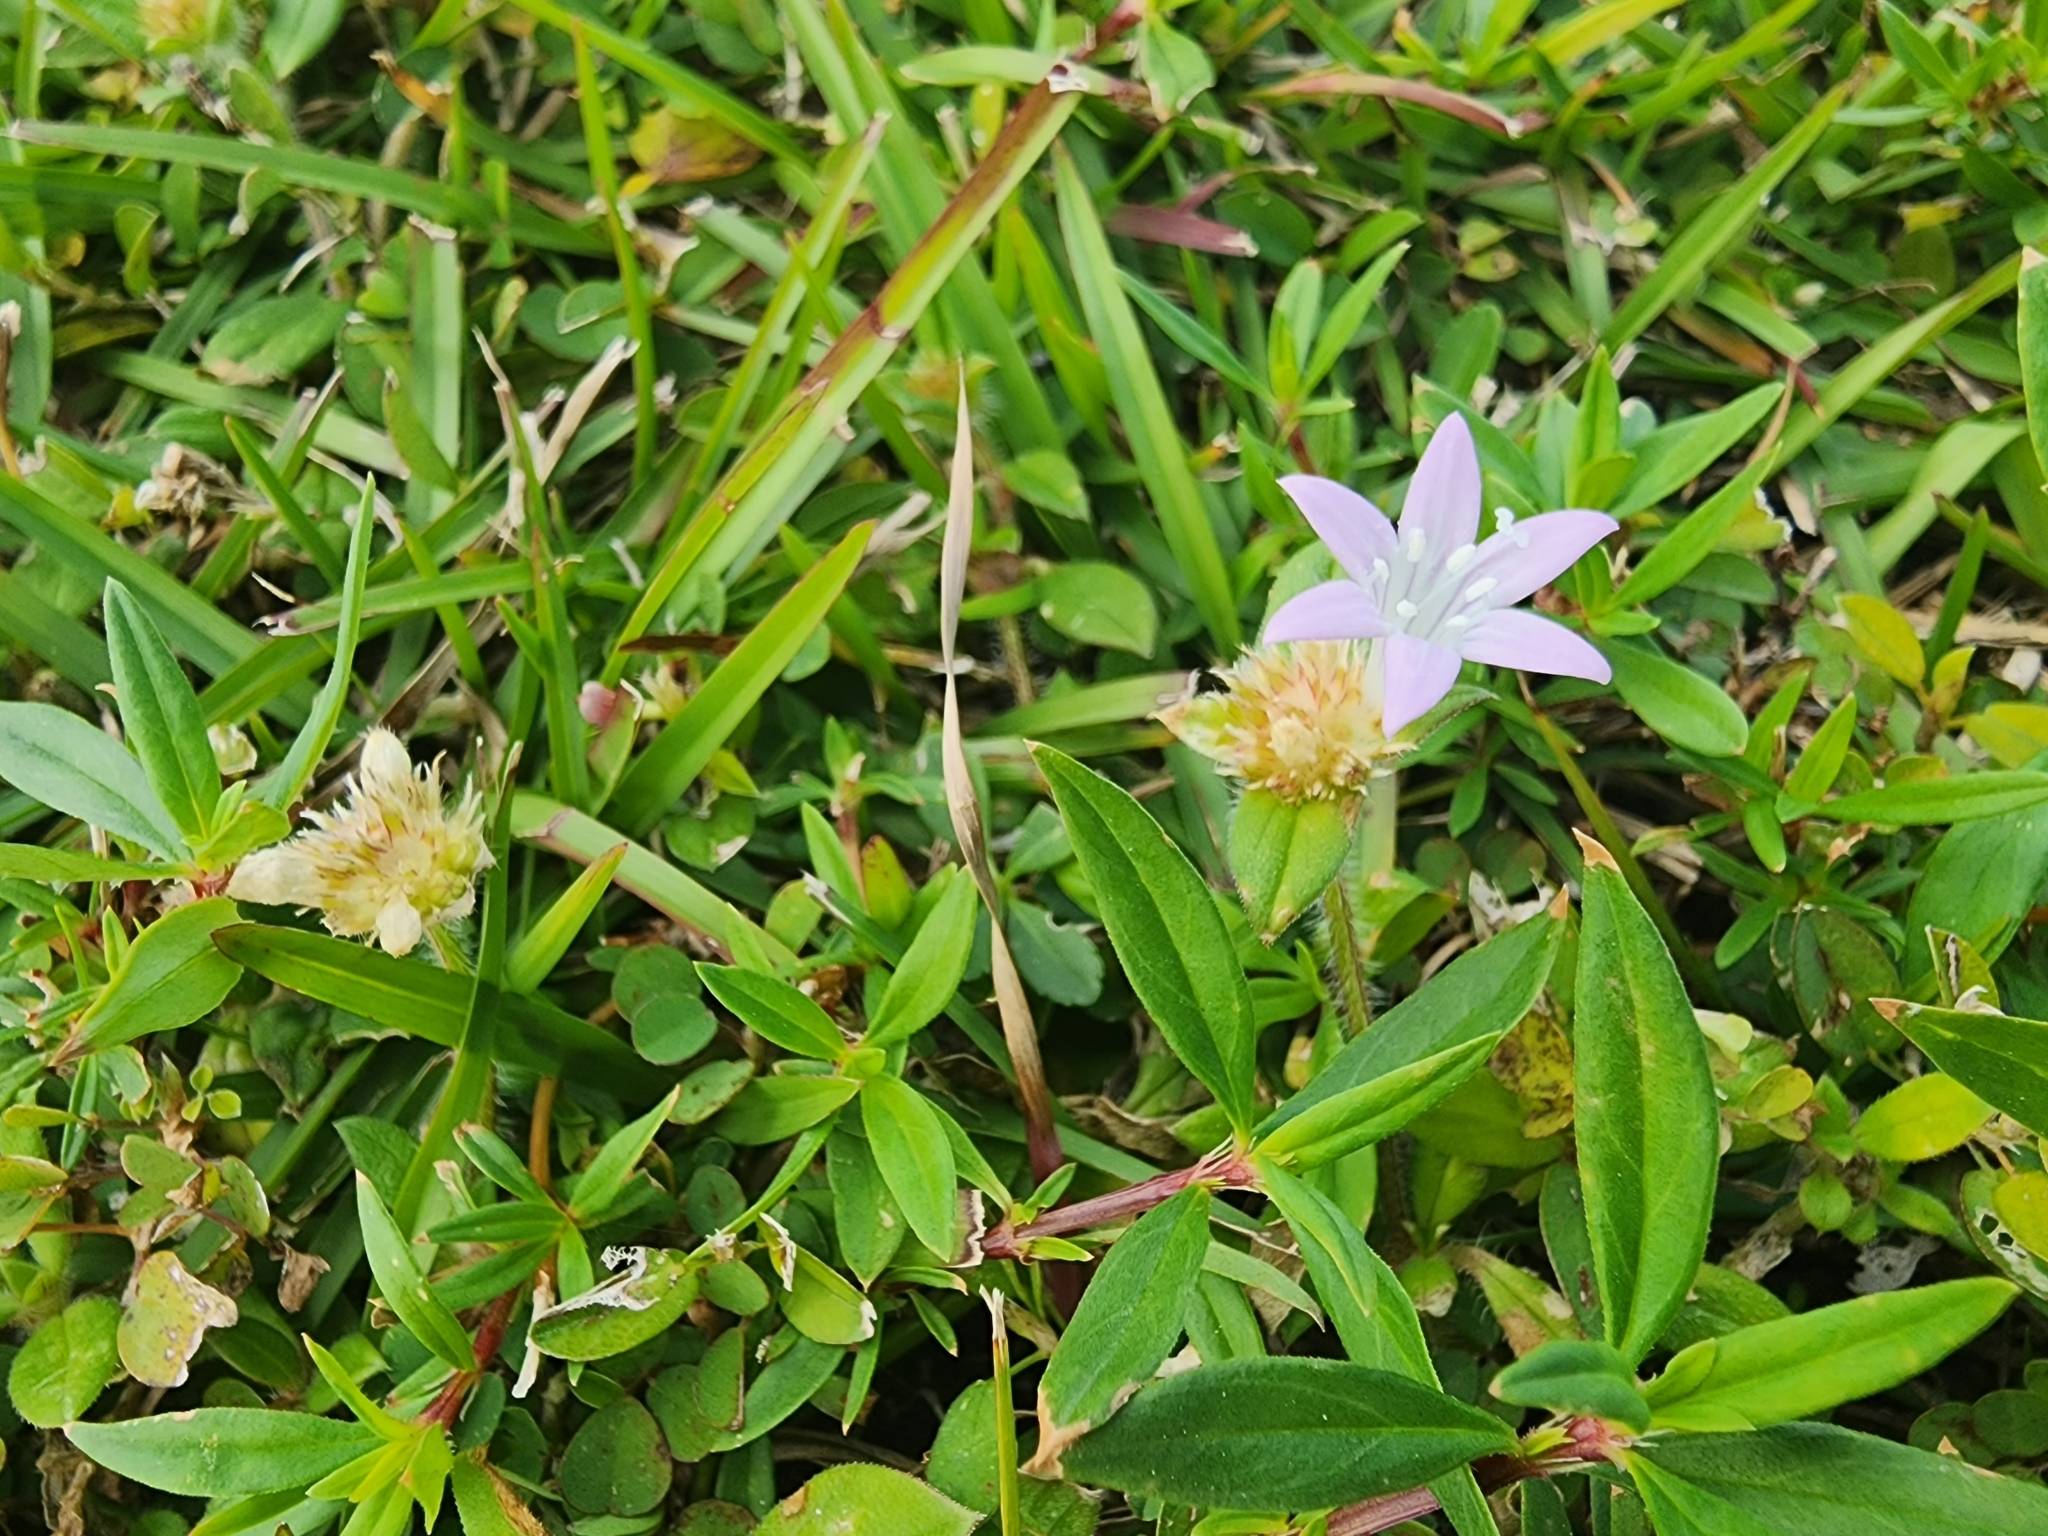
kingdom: Plantae
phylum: Tracheophyta
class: Magnoliopsida
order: Gentianales
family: Rubiaceae
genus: Richardia
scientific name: Richardia grandiflora
